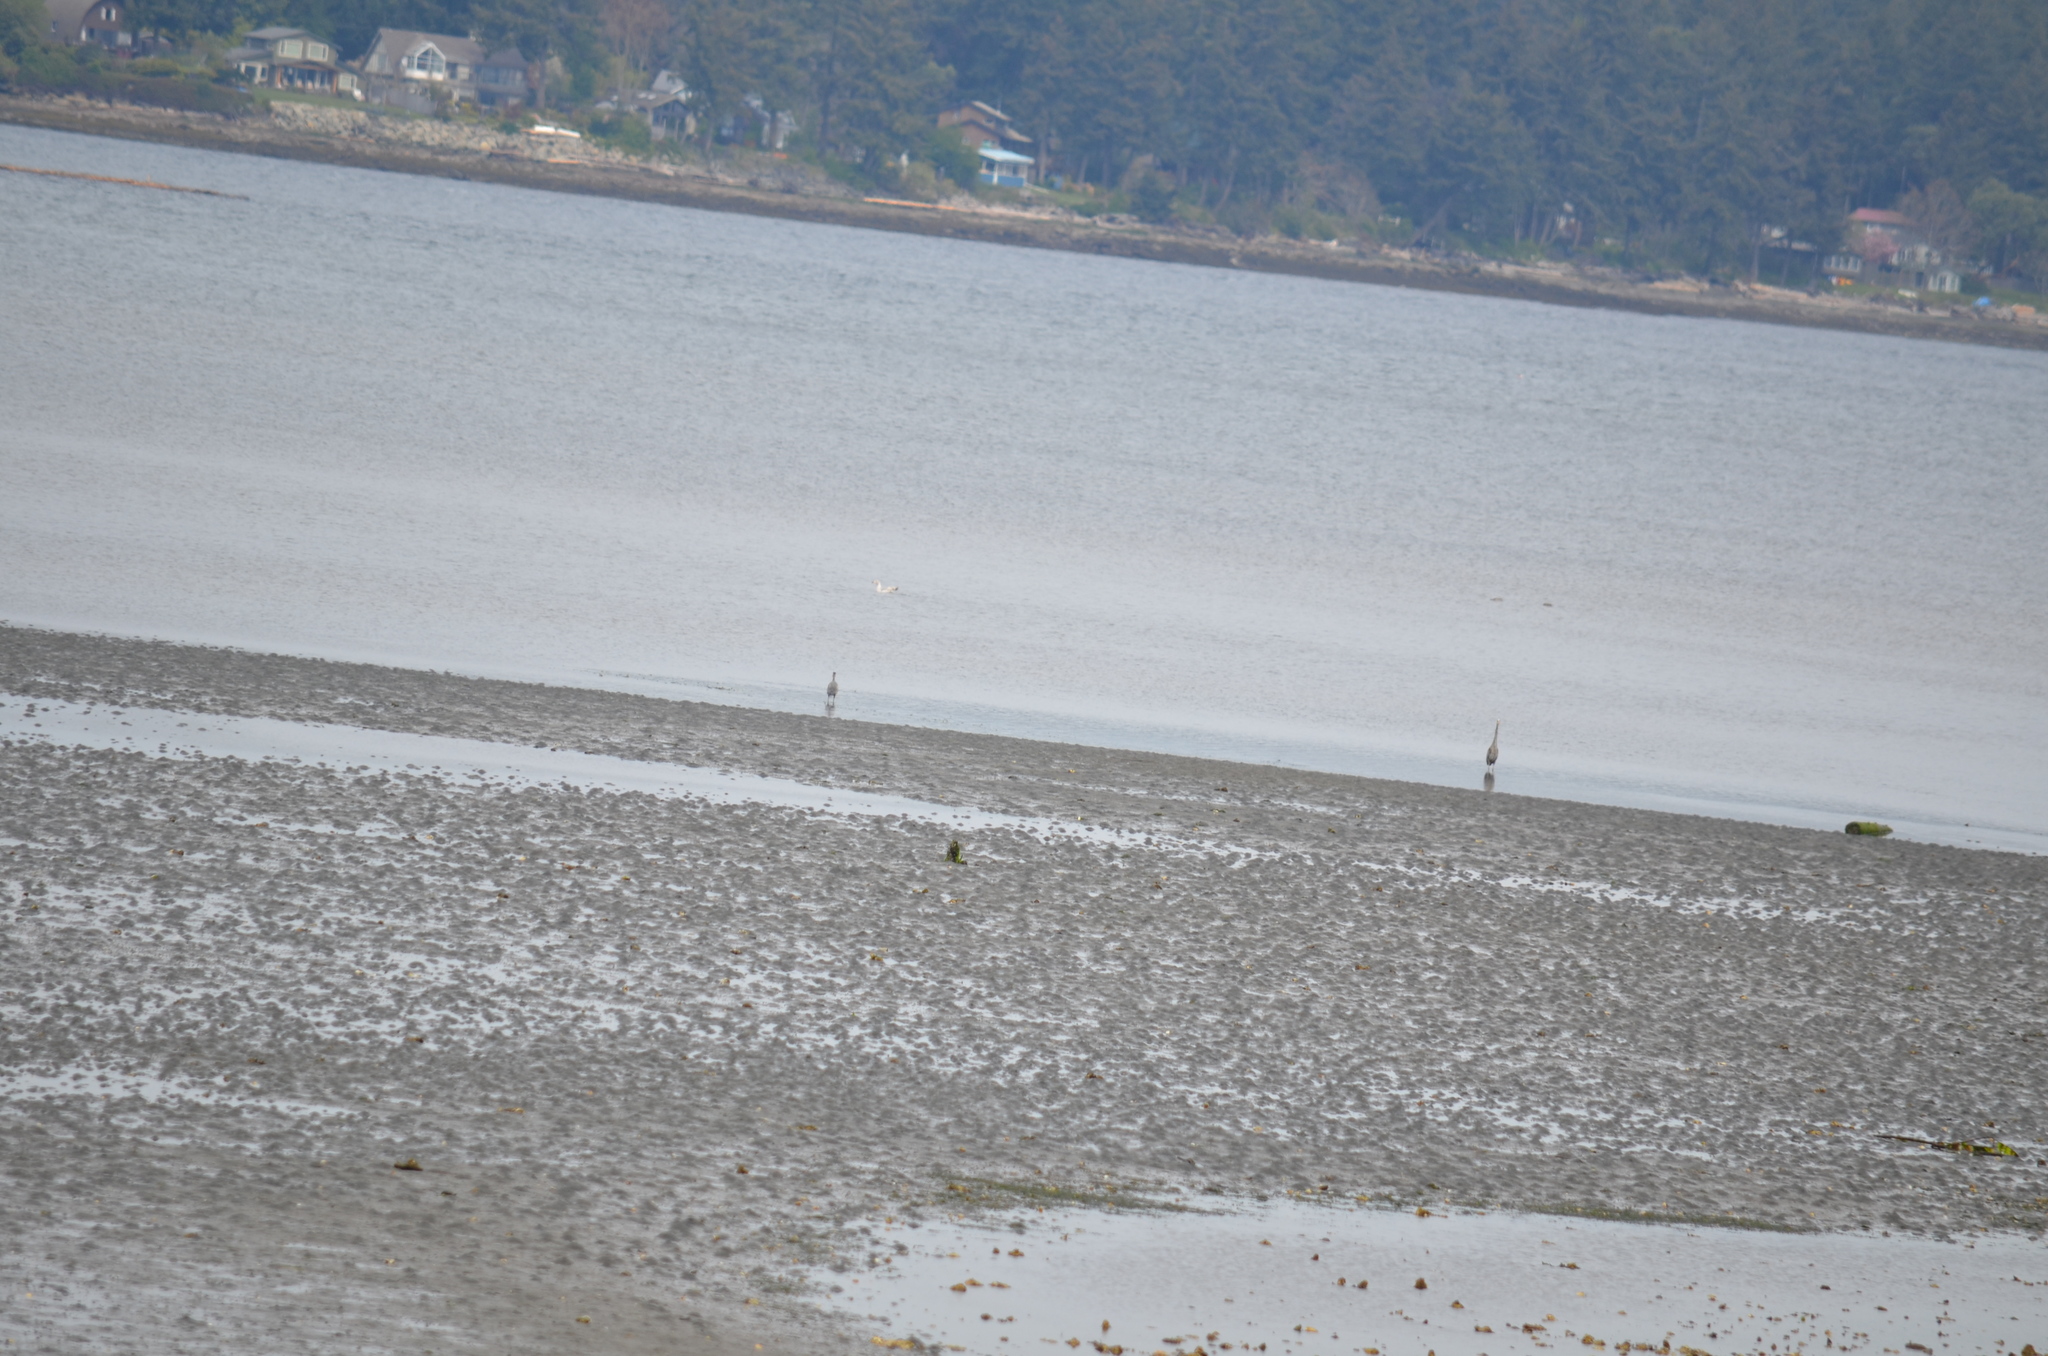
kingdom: Animalia
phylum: Chordata
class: Aves
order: Pelecaniformes
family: Ardeidae
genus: Ardea
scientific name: Ardea herodias
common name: Great blue heron
